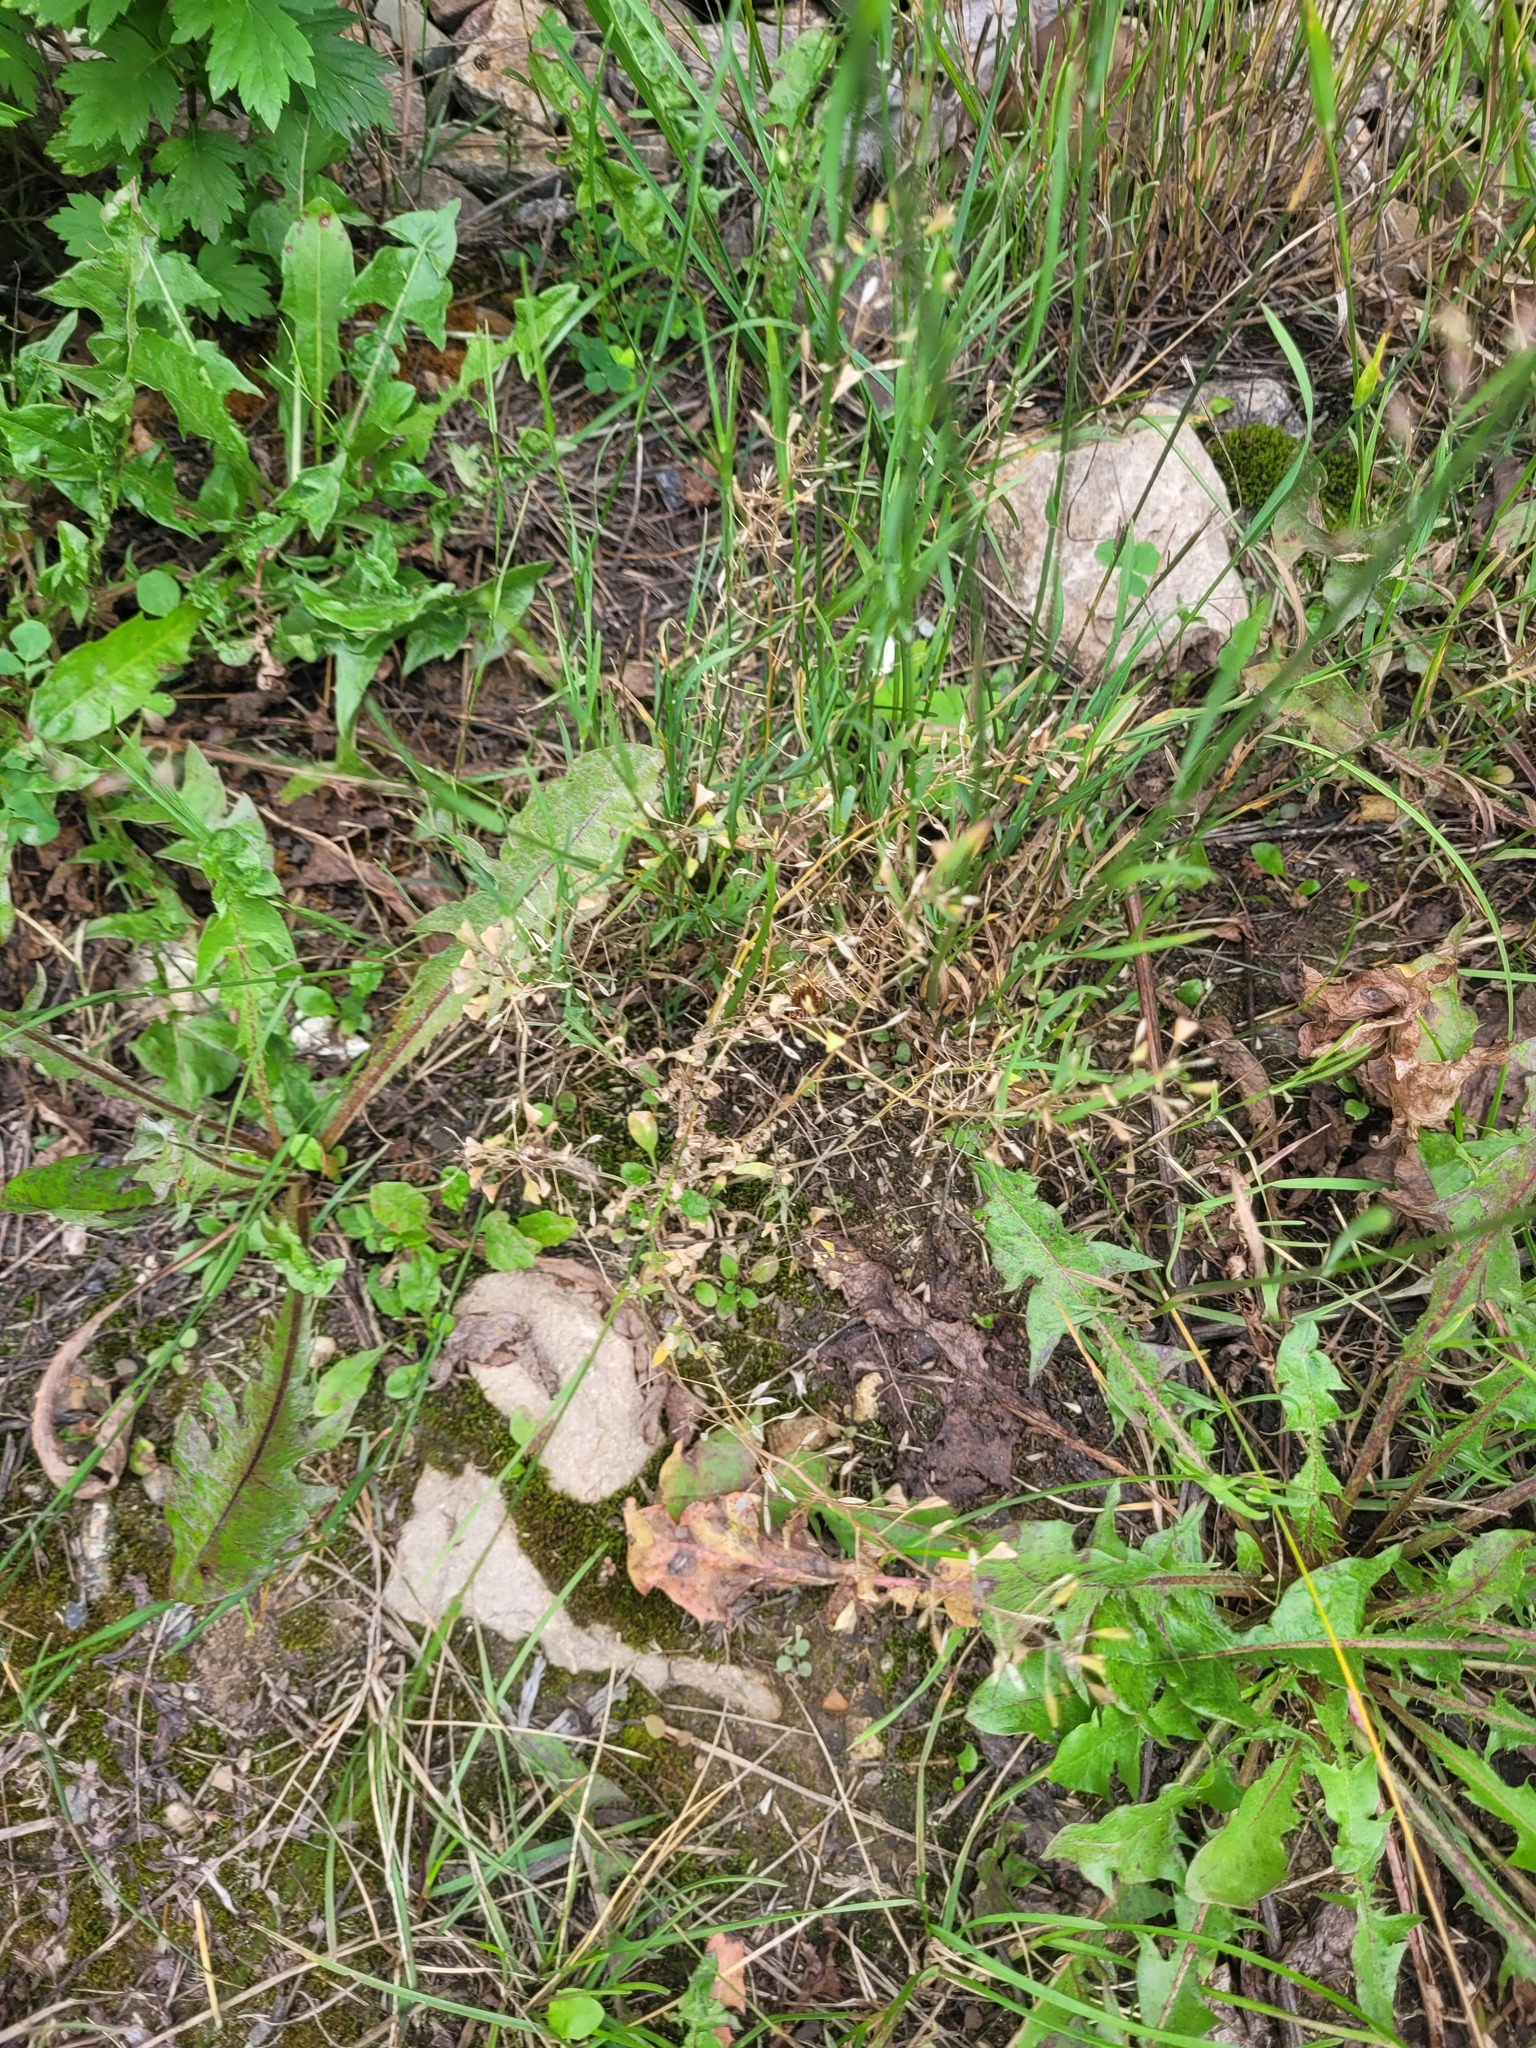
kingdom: Plantae
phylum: Tracheophyta
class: Magnoliopsida
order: Brassicales
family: Brassicaceae
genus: Capsella
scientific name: Capsella bursa-pastoris
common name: Shepherd's purse
